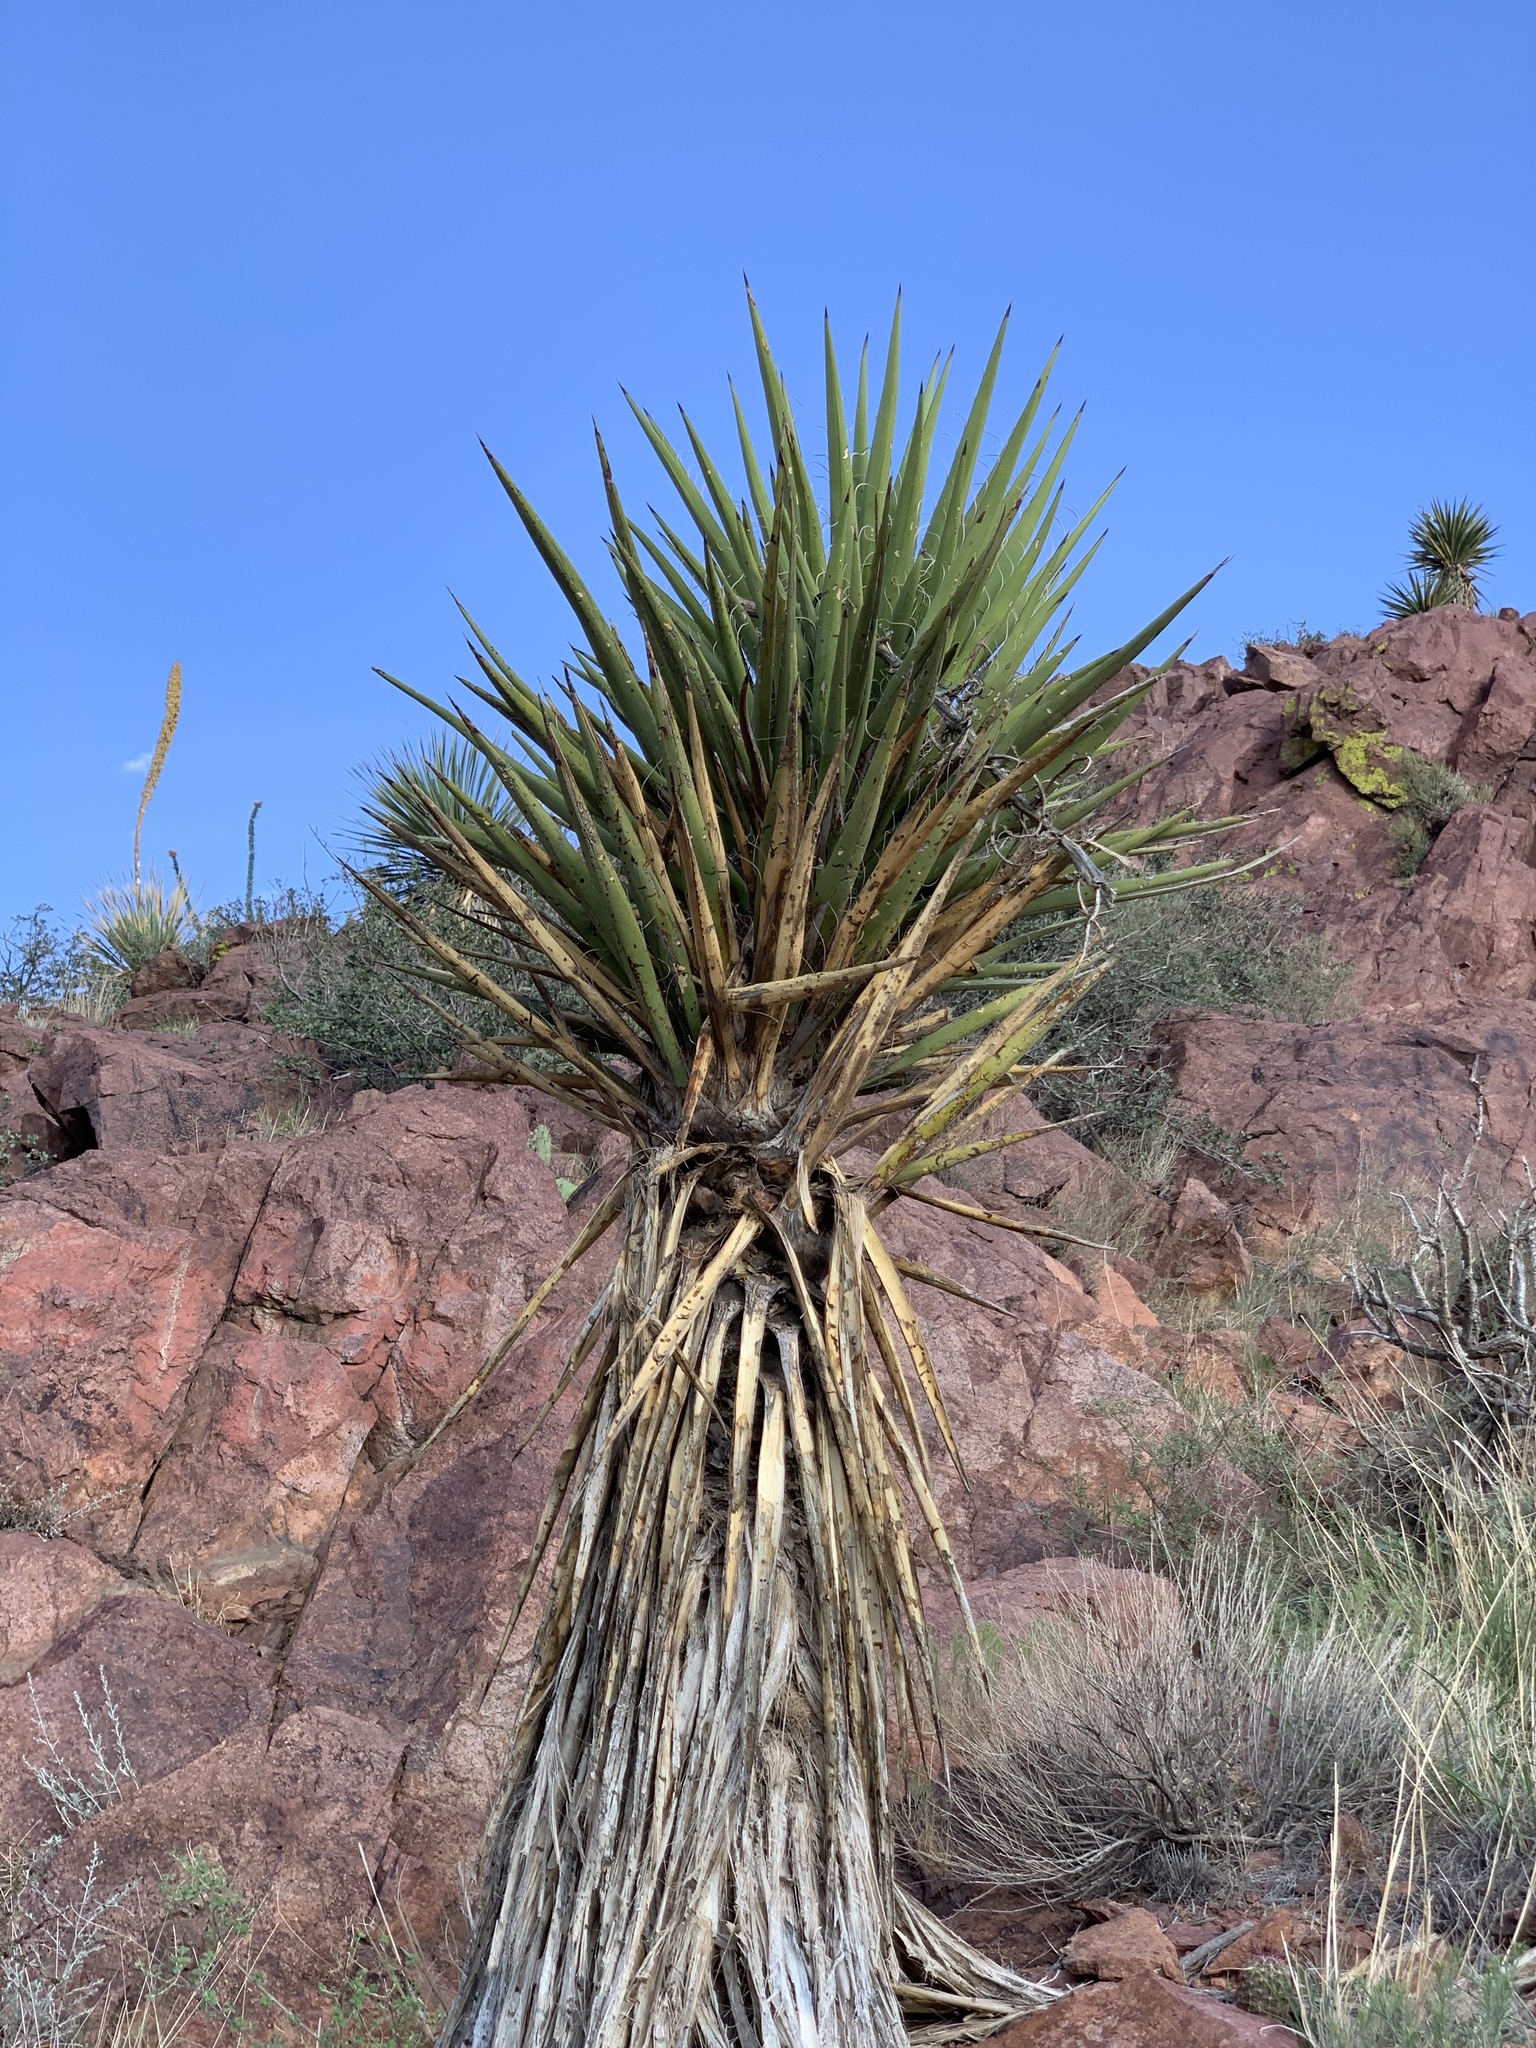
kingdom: Plantae
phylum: Tracheophyta
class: Liliopsida
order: Asparagales
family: Asparagaceae
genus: Yucca
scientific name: Yucca treculiana
